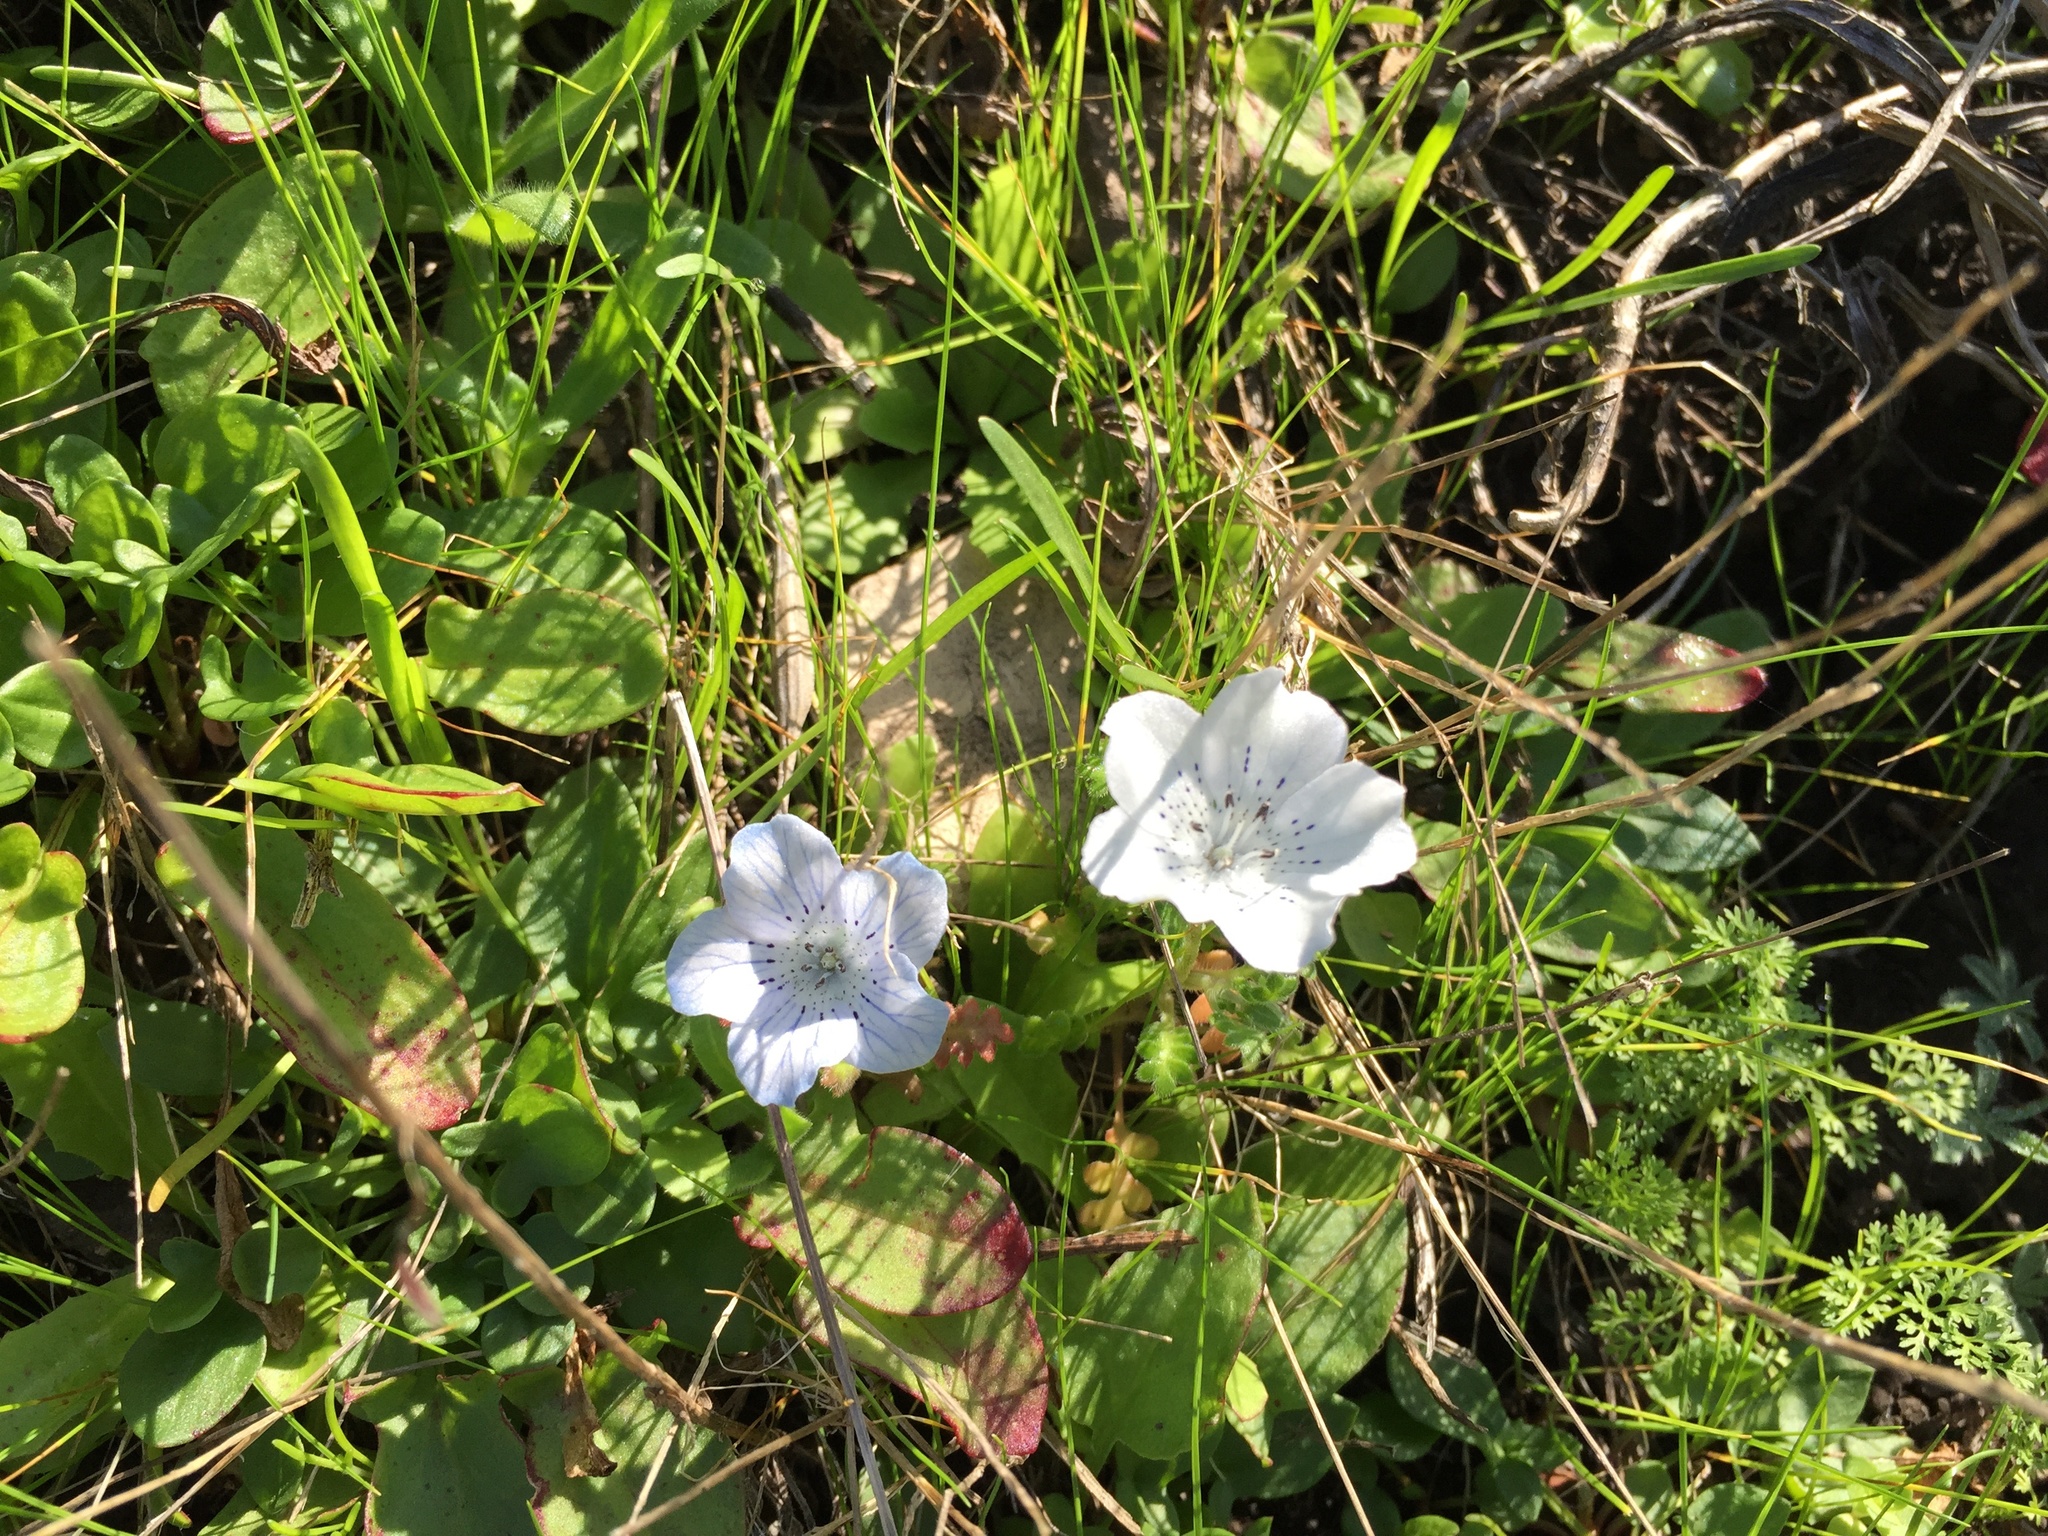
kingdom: Plantae
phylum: Tracheophyta
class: Magnoliopsida
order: Boraginales
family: Hydrophyllaceae
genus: Nemophila
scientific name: Nemophila menziesii
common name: Baby's-blue-eyes
